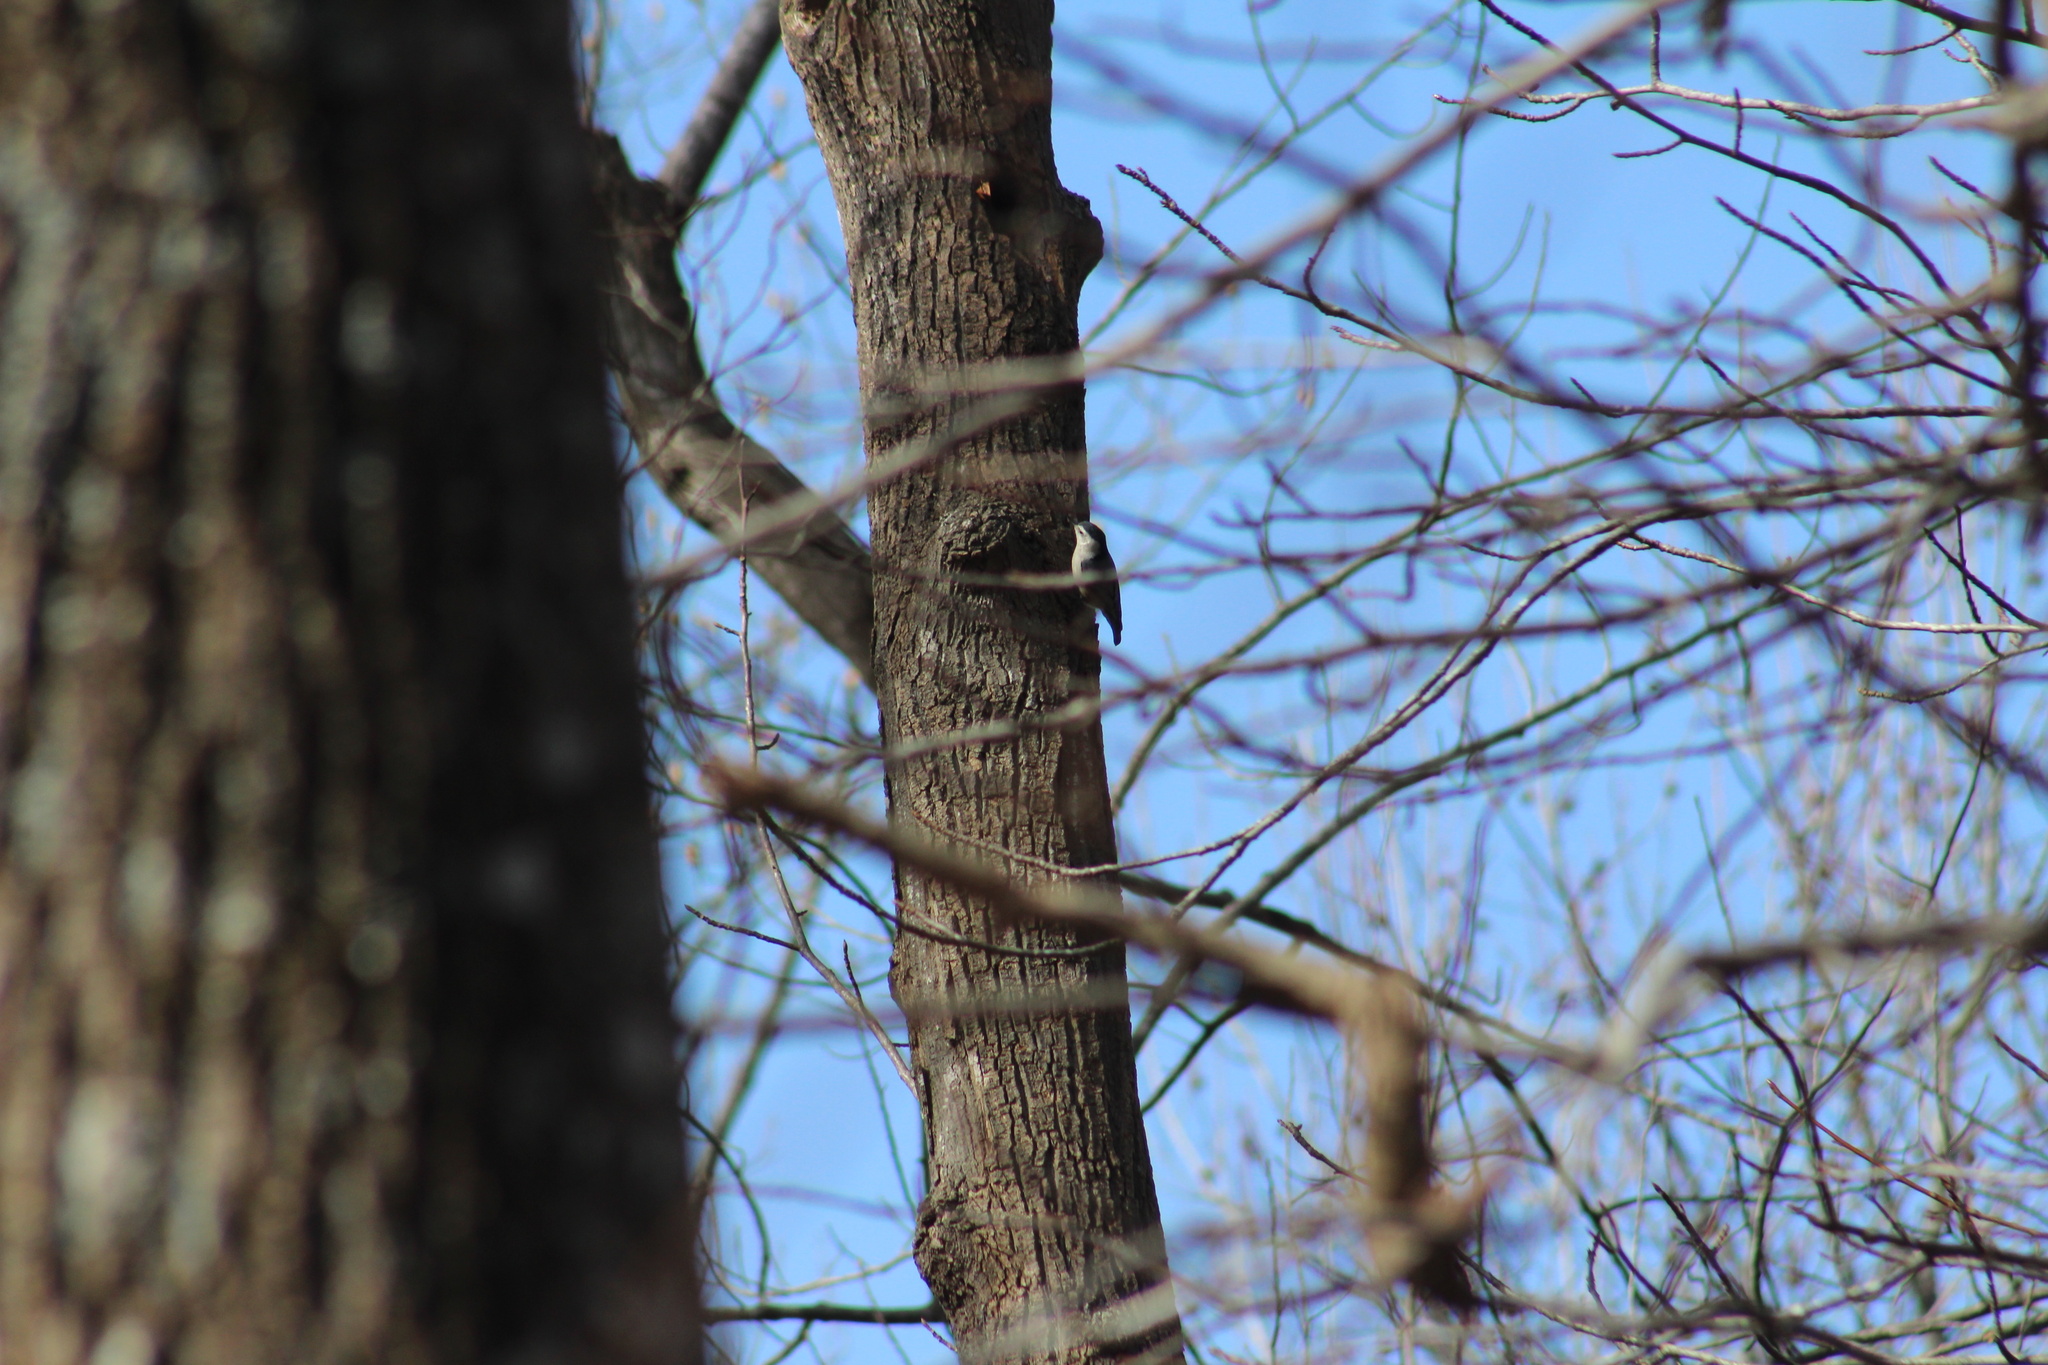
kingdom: Animalia
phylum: Chordata
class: Aves
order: Passeriformes
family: Sittidae
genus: Sitta
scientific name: Sitta carolinensis
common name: White-breasted nuthatch
